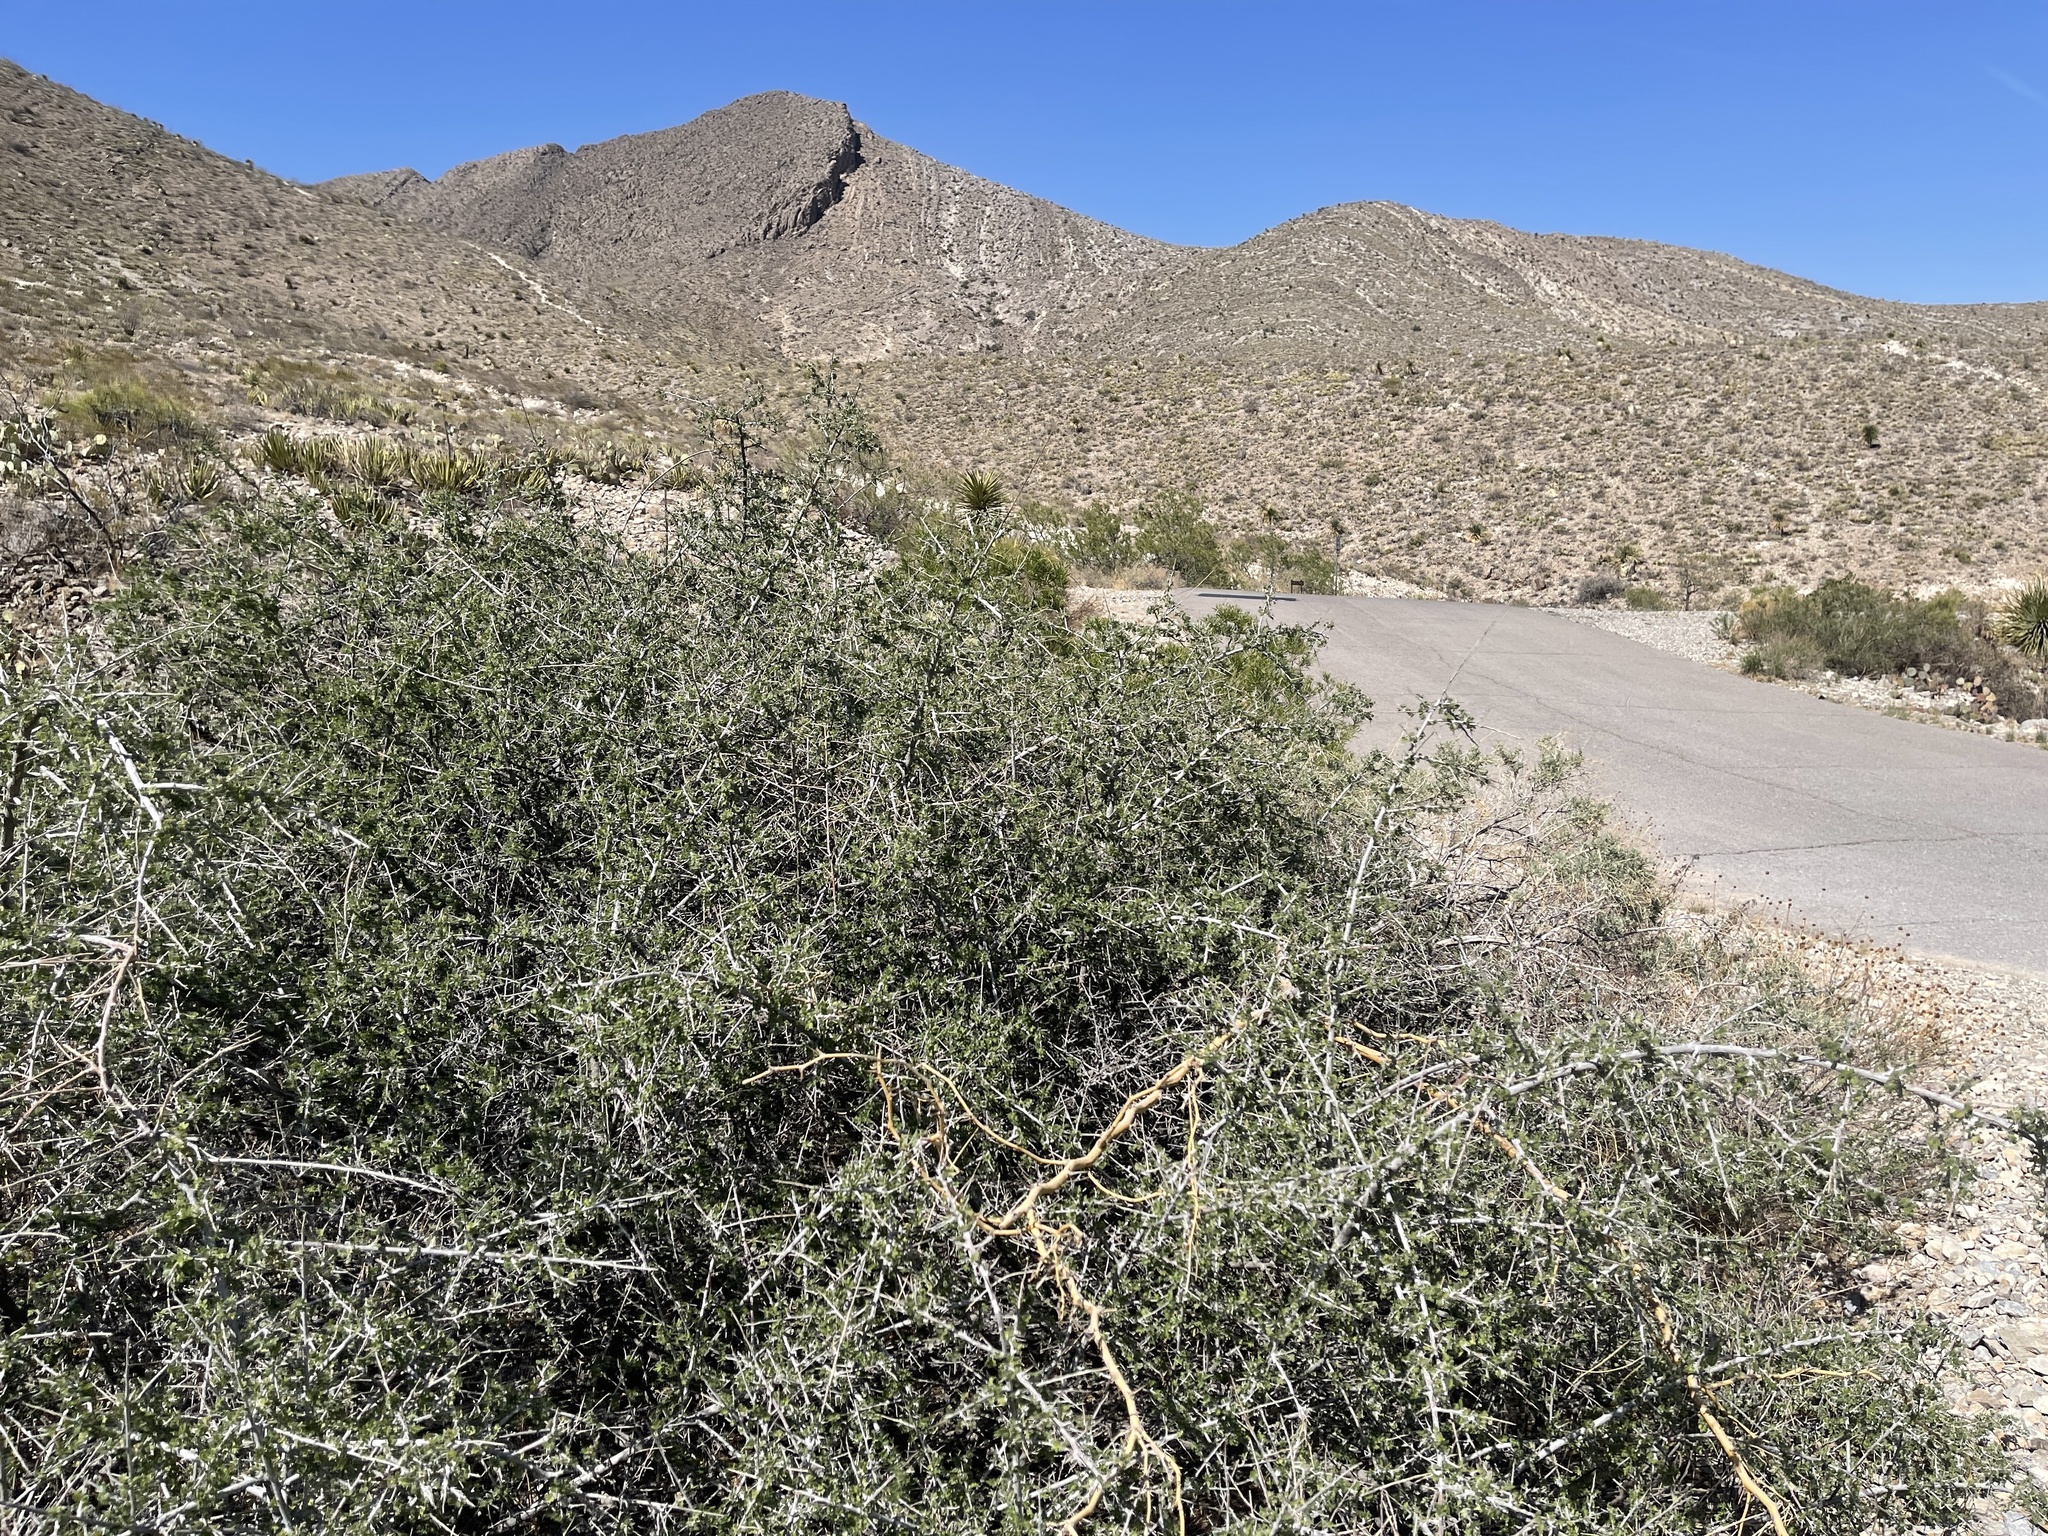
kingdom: Plantae
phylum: Tracheophyta
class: Magnoliopsida
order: Sapindales
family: Anacardiaceae
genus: Rhus
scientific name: Rhus microphylla
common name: Desert sumac
